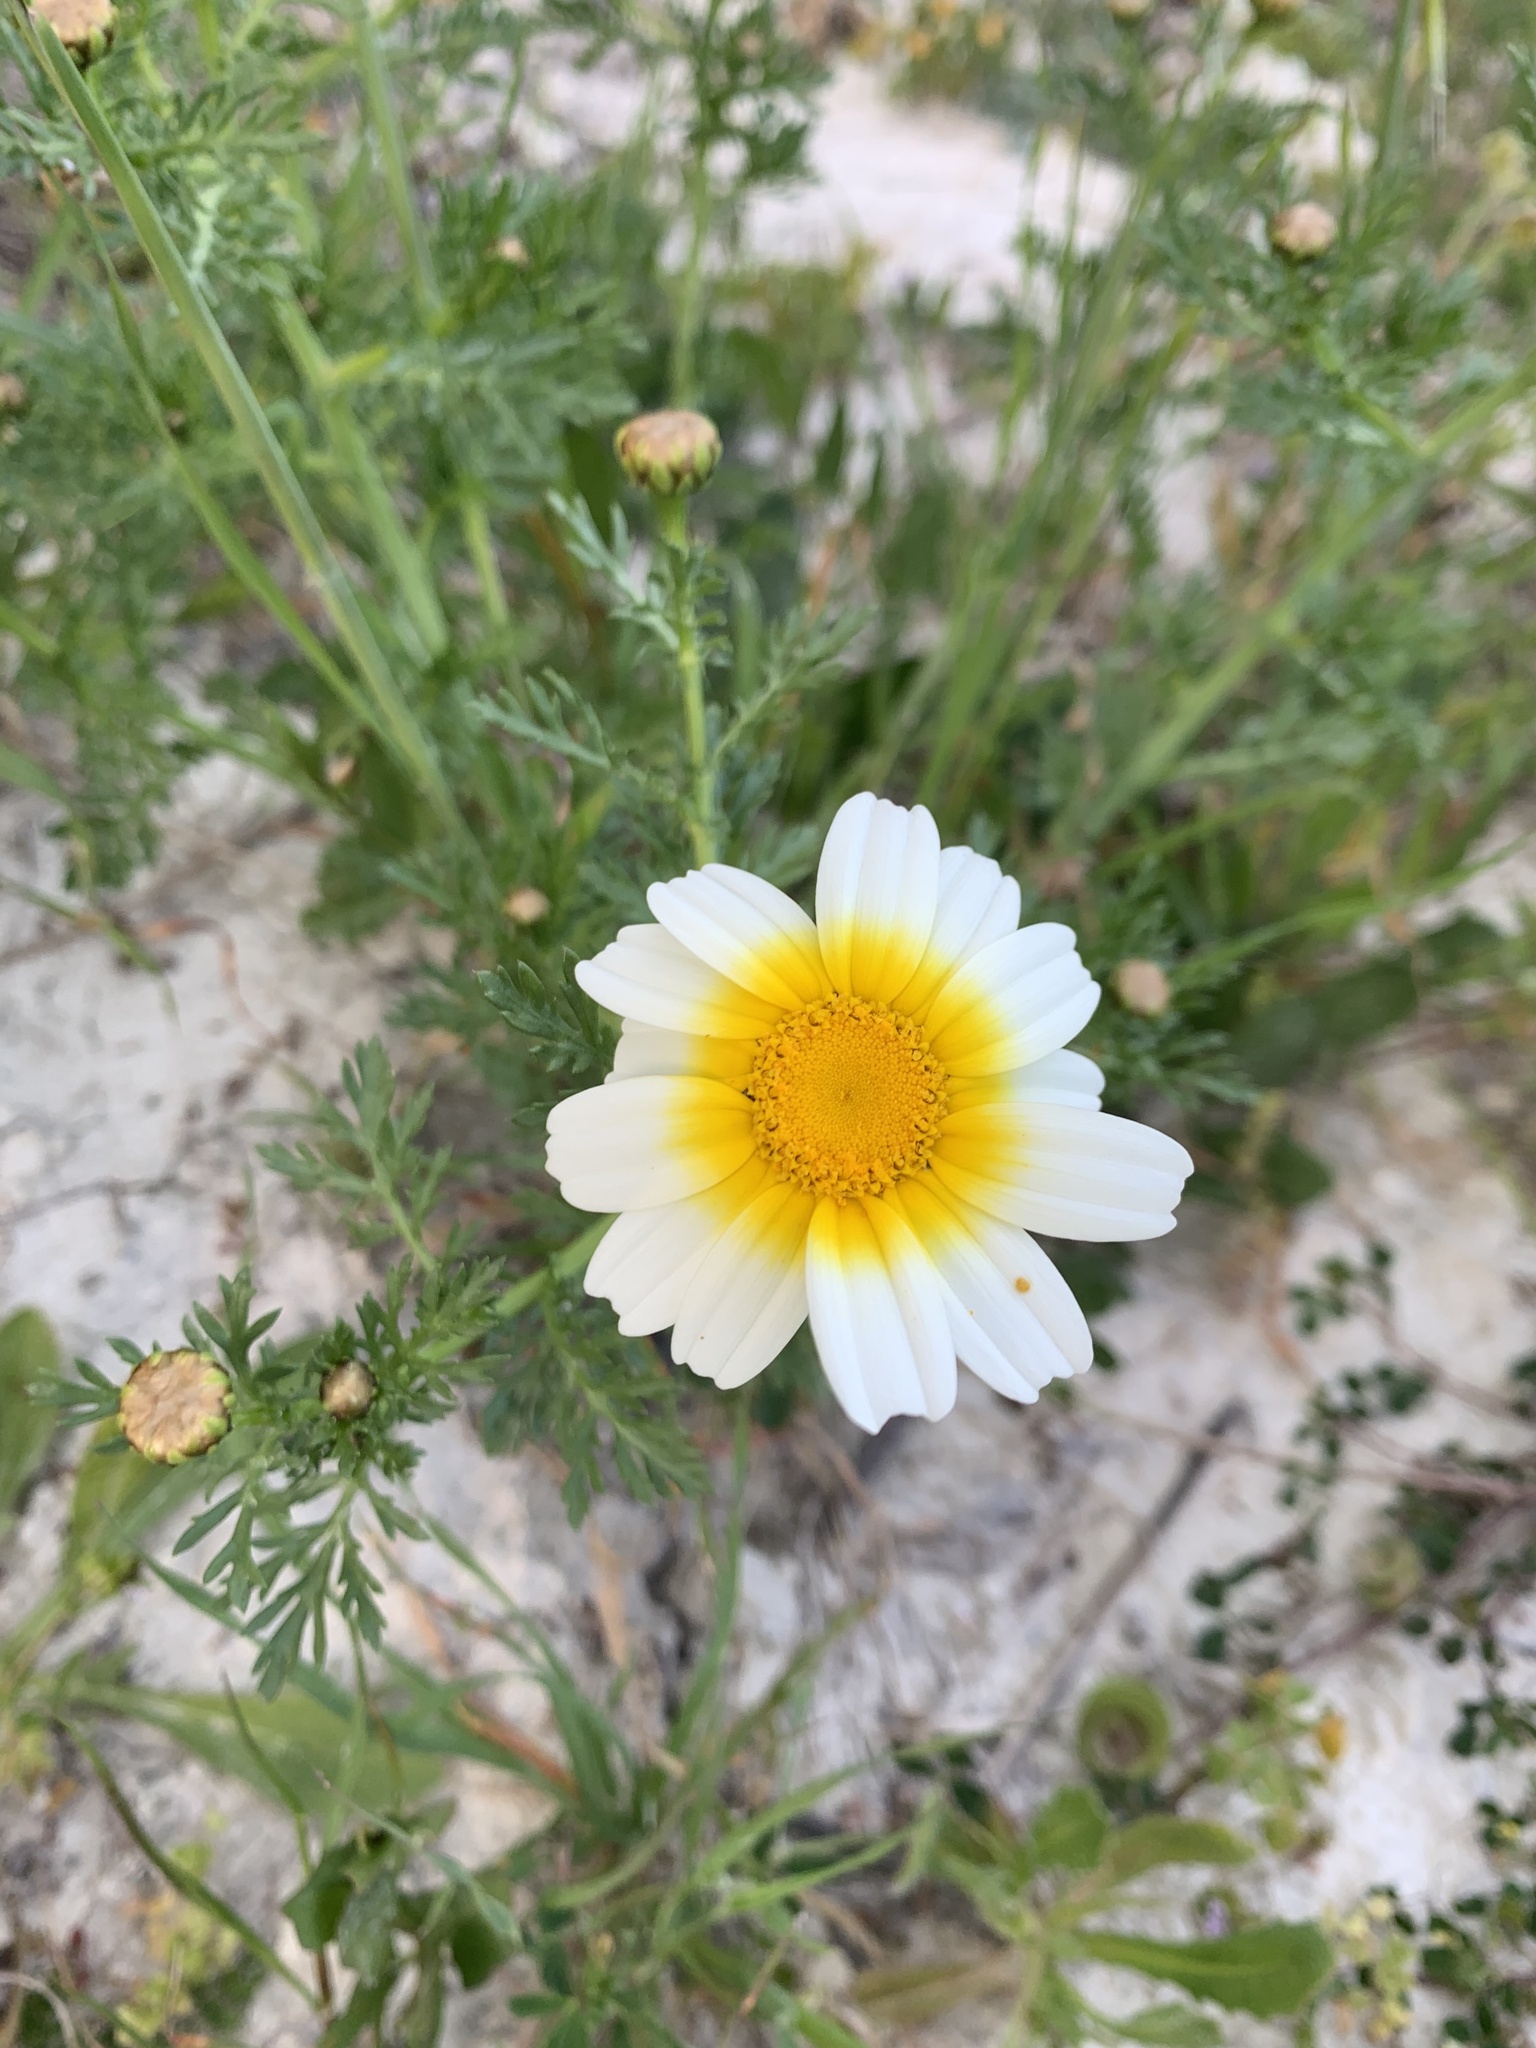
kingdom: Plantae
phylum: Tracheophyta
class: Magnoliopsida
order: Asterales
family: Asteraceae
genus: Glebionis
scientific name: Glebionis coronaria
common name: Crowndaisy
